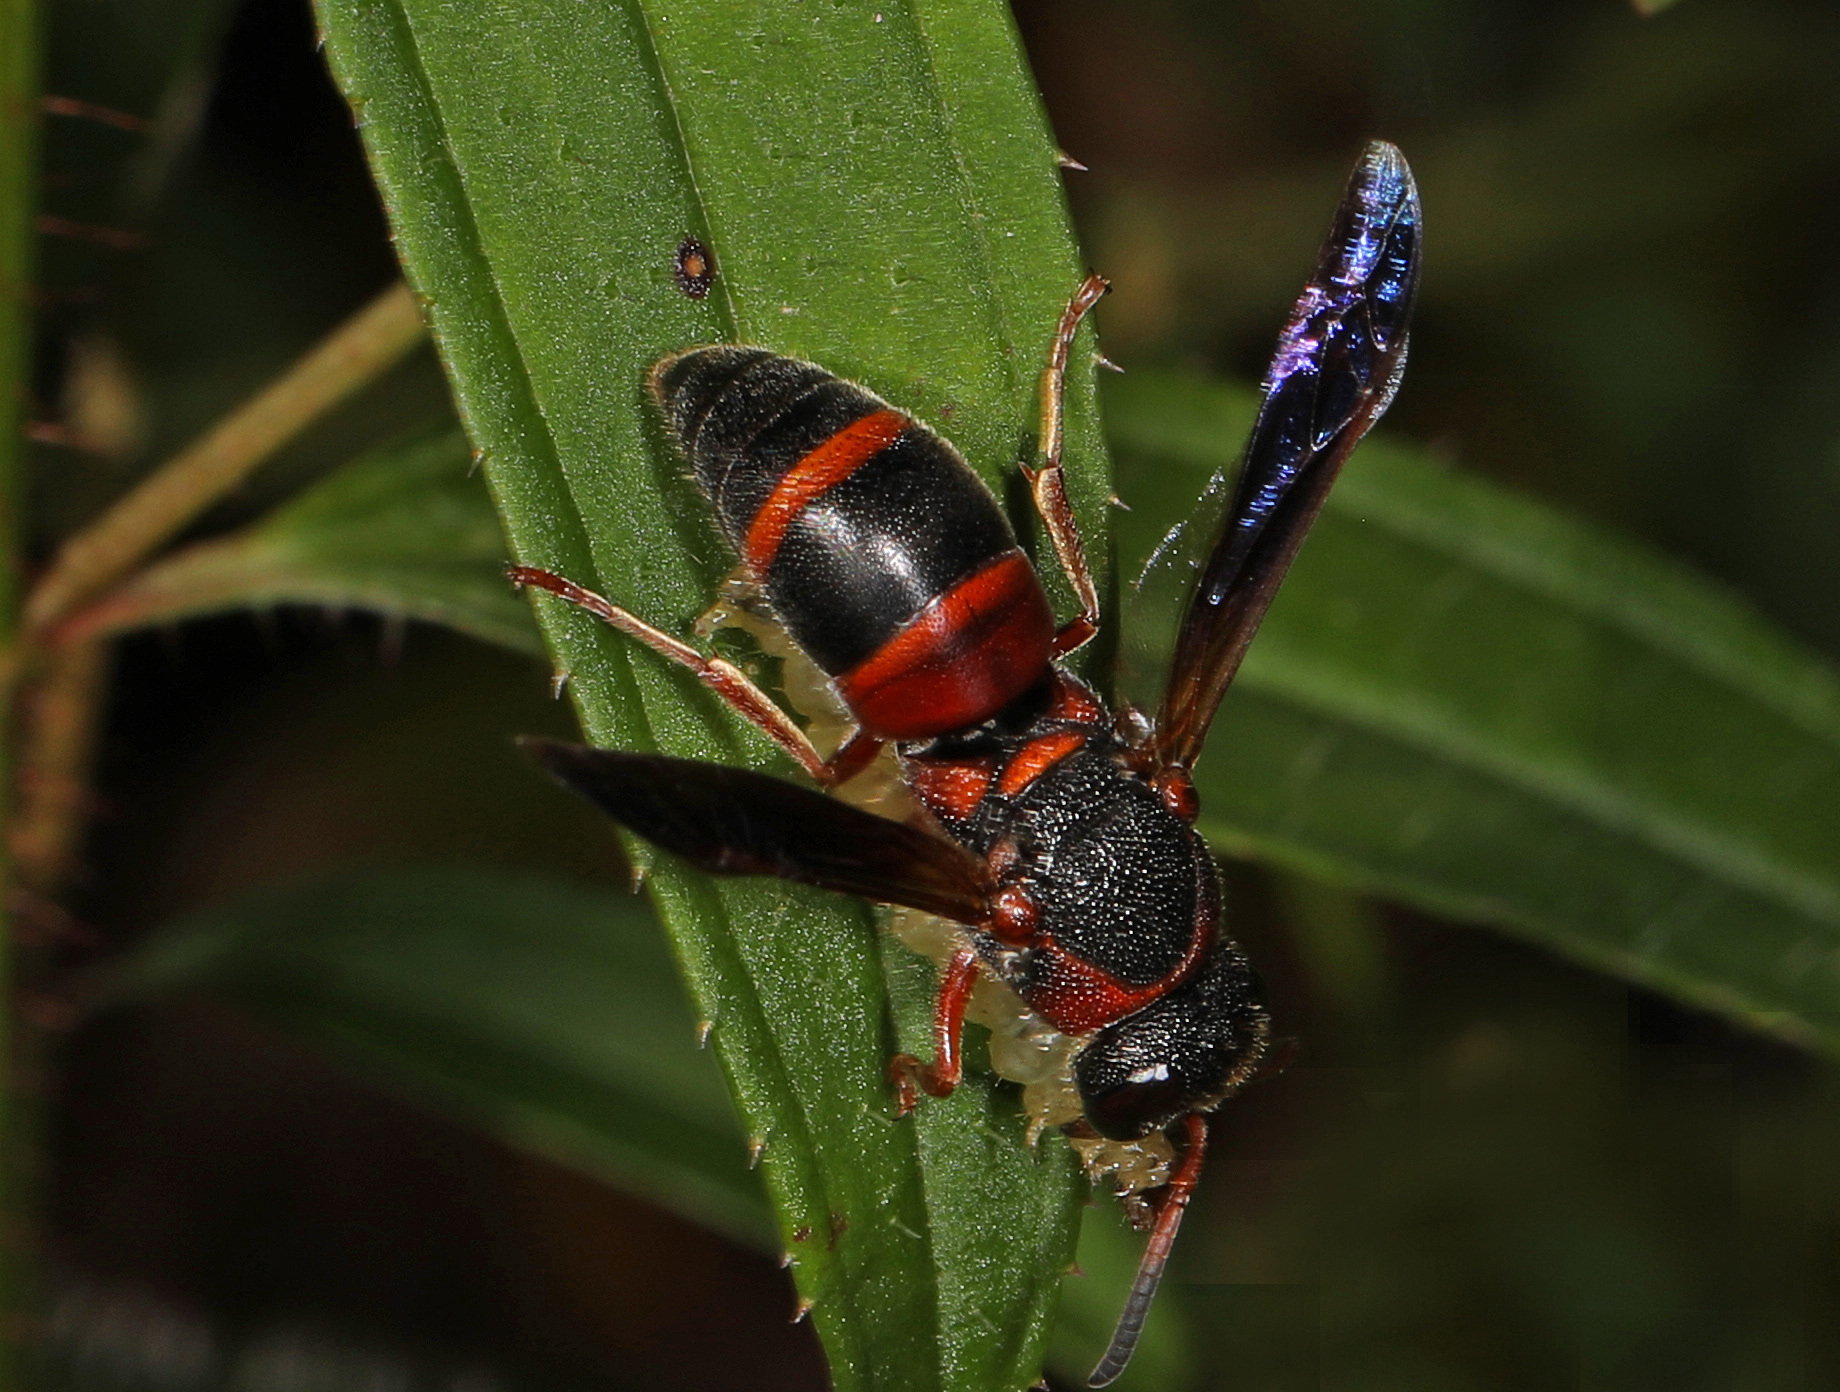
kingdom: Animalia
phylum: Arthropoda
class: Insecta
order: Hymenoptera
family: Eumenidae
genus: Pachodynerus
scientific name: Pachodynerus erynnis
